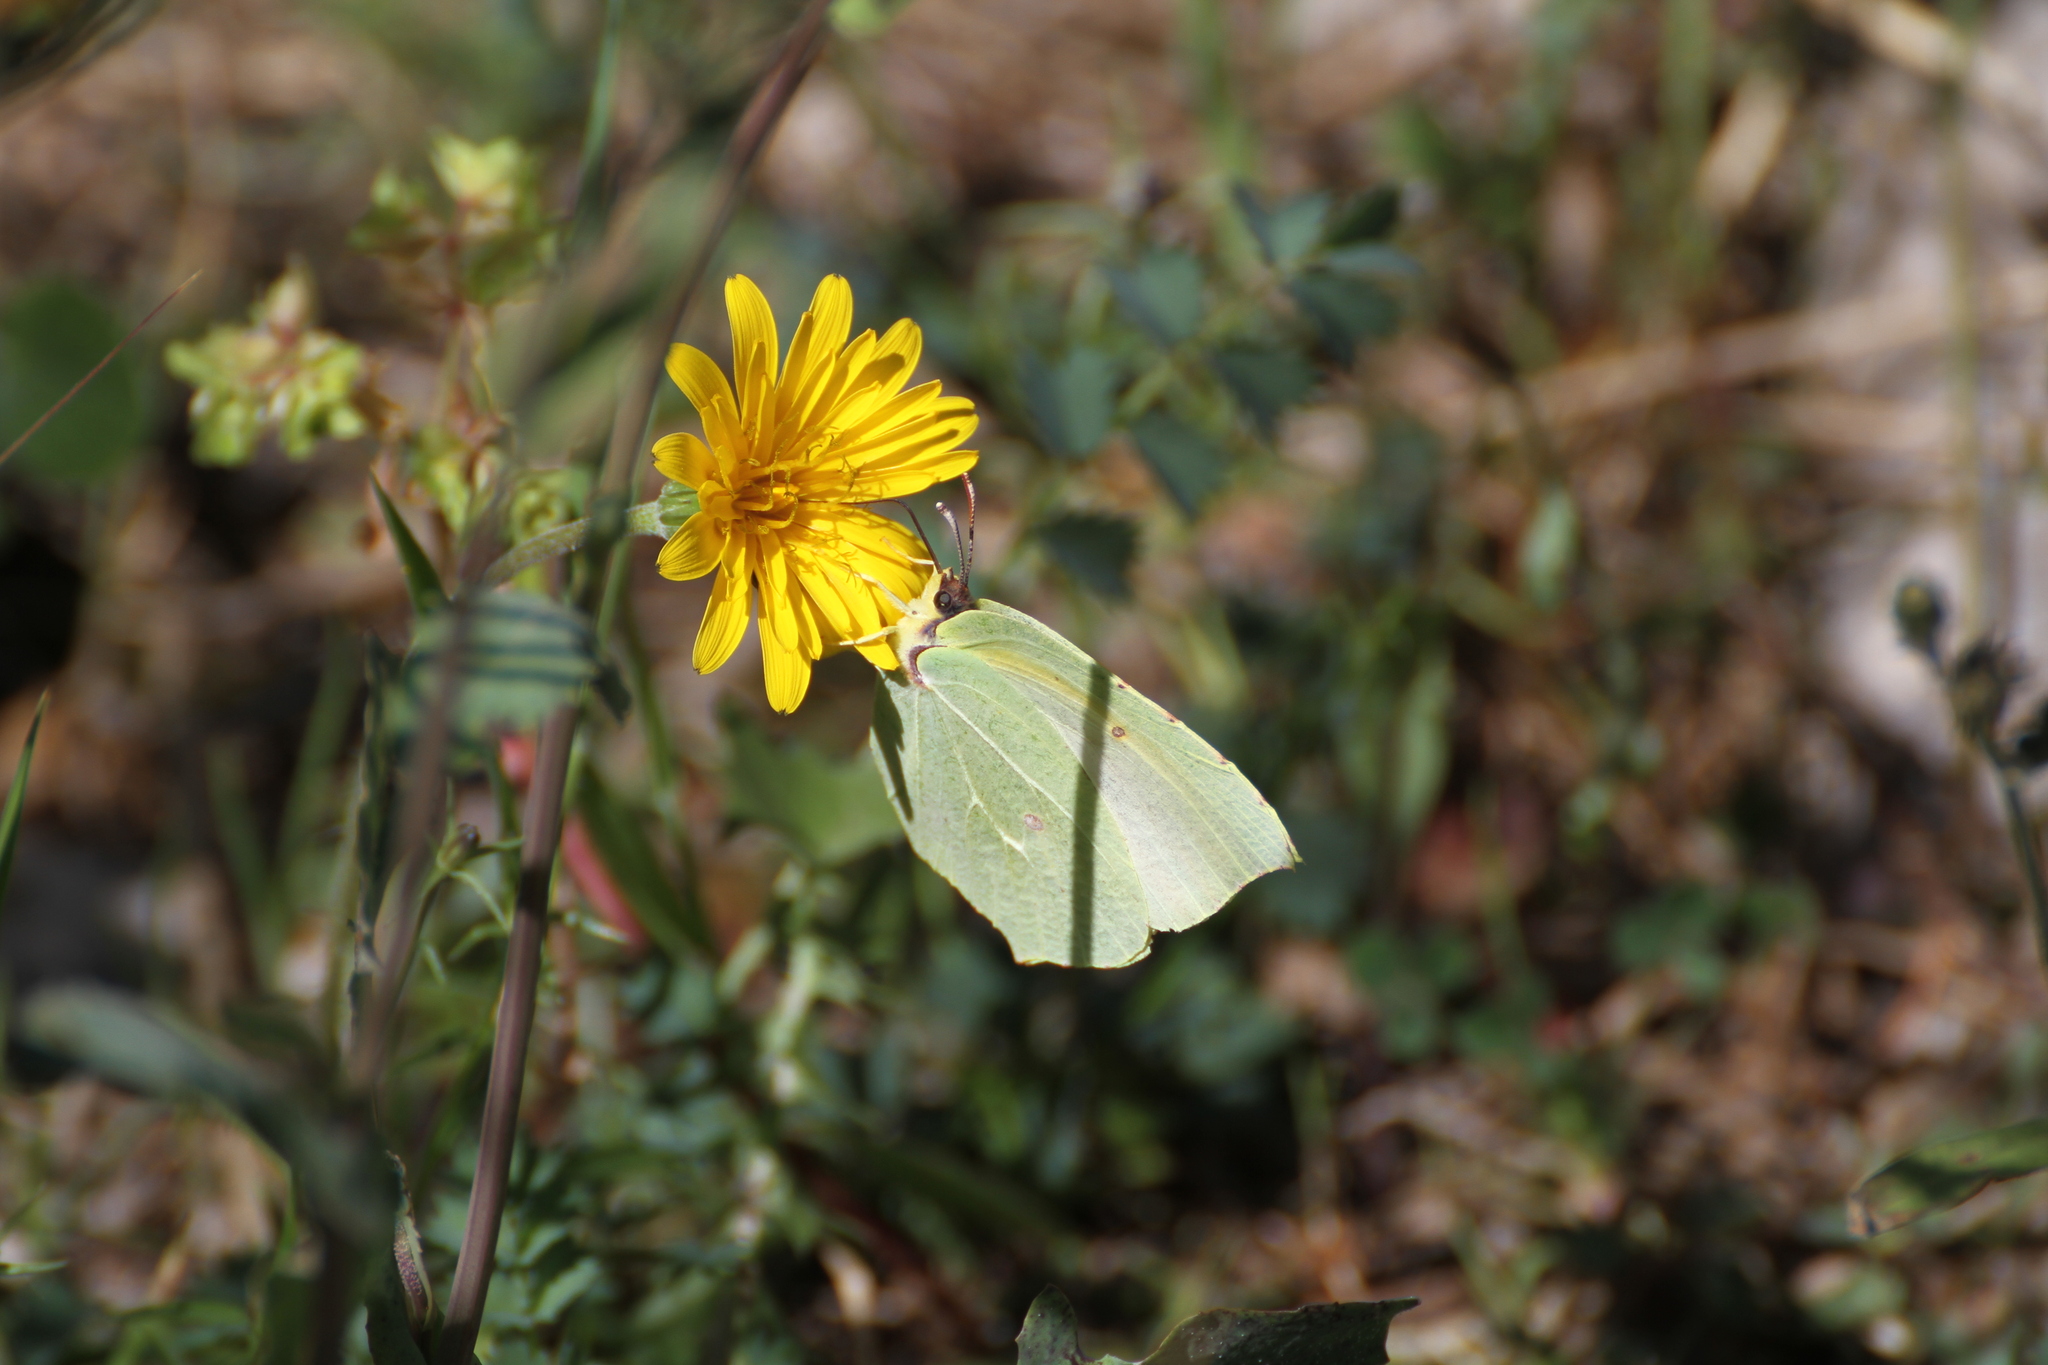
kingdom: Animalia
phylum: Arthropoda
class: Insecta
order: Lepidoptera
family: Pieridae
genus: Gonepteryx
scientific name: Gonepteryx cleopatra
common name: Cleopatra
